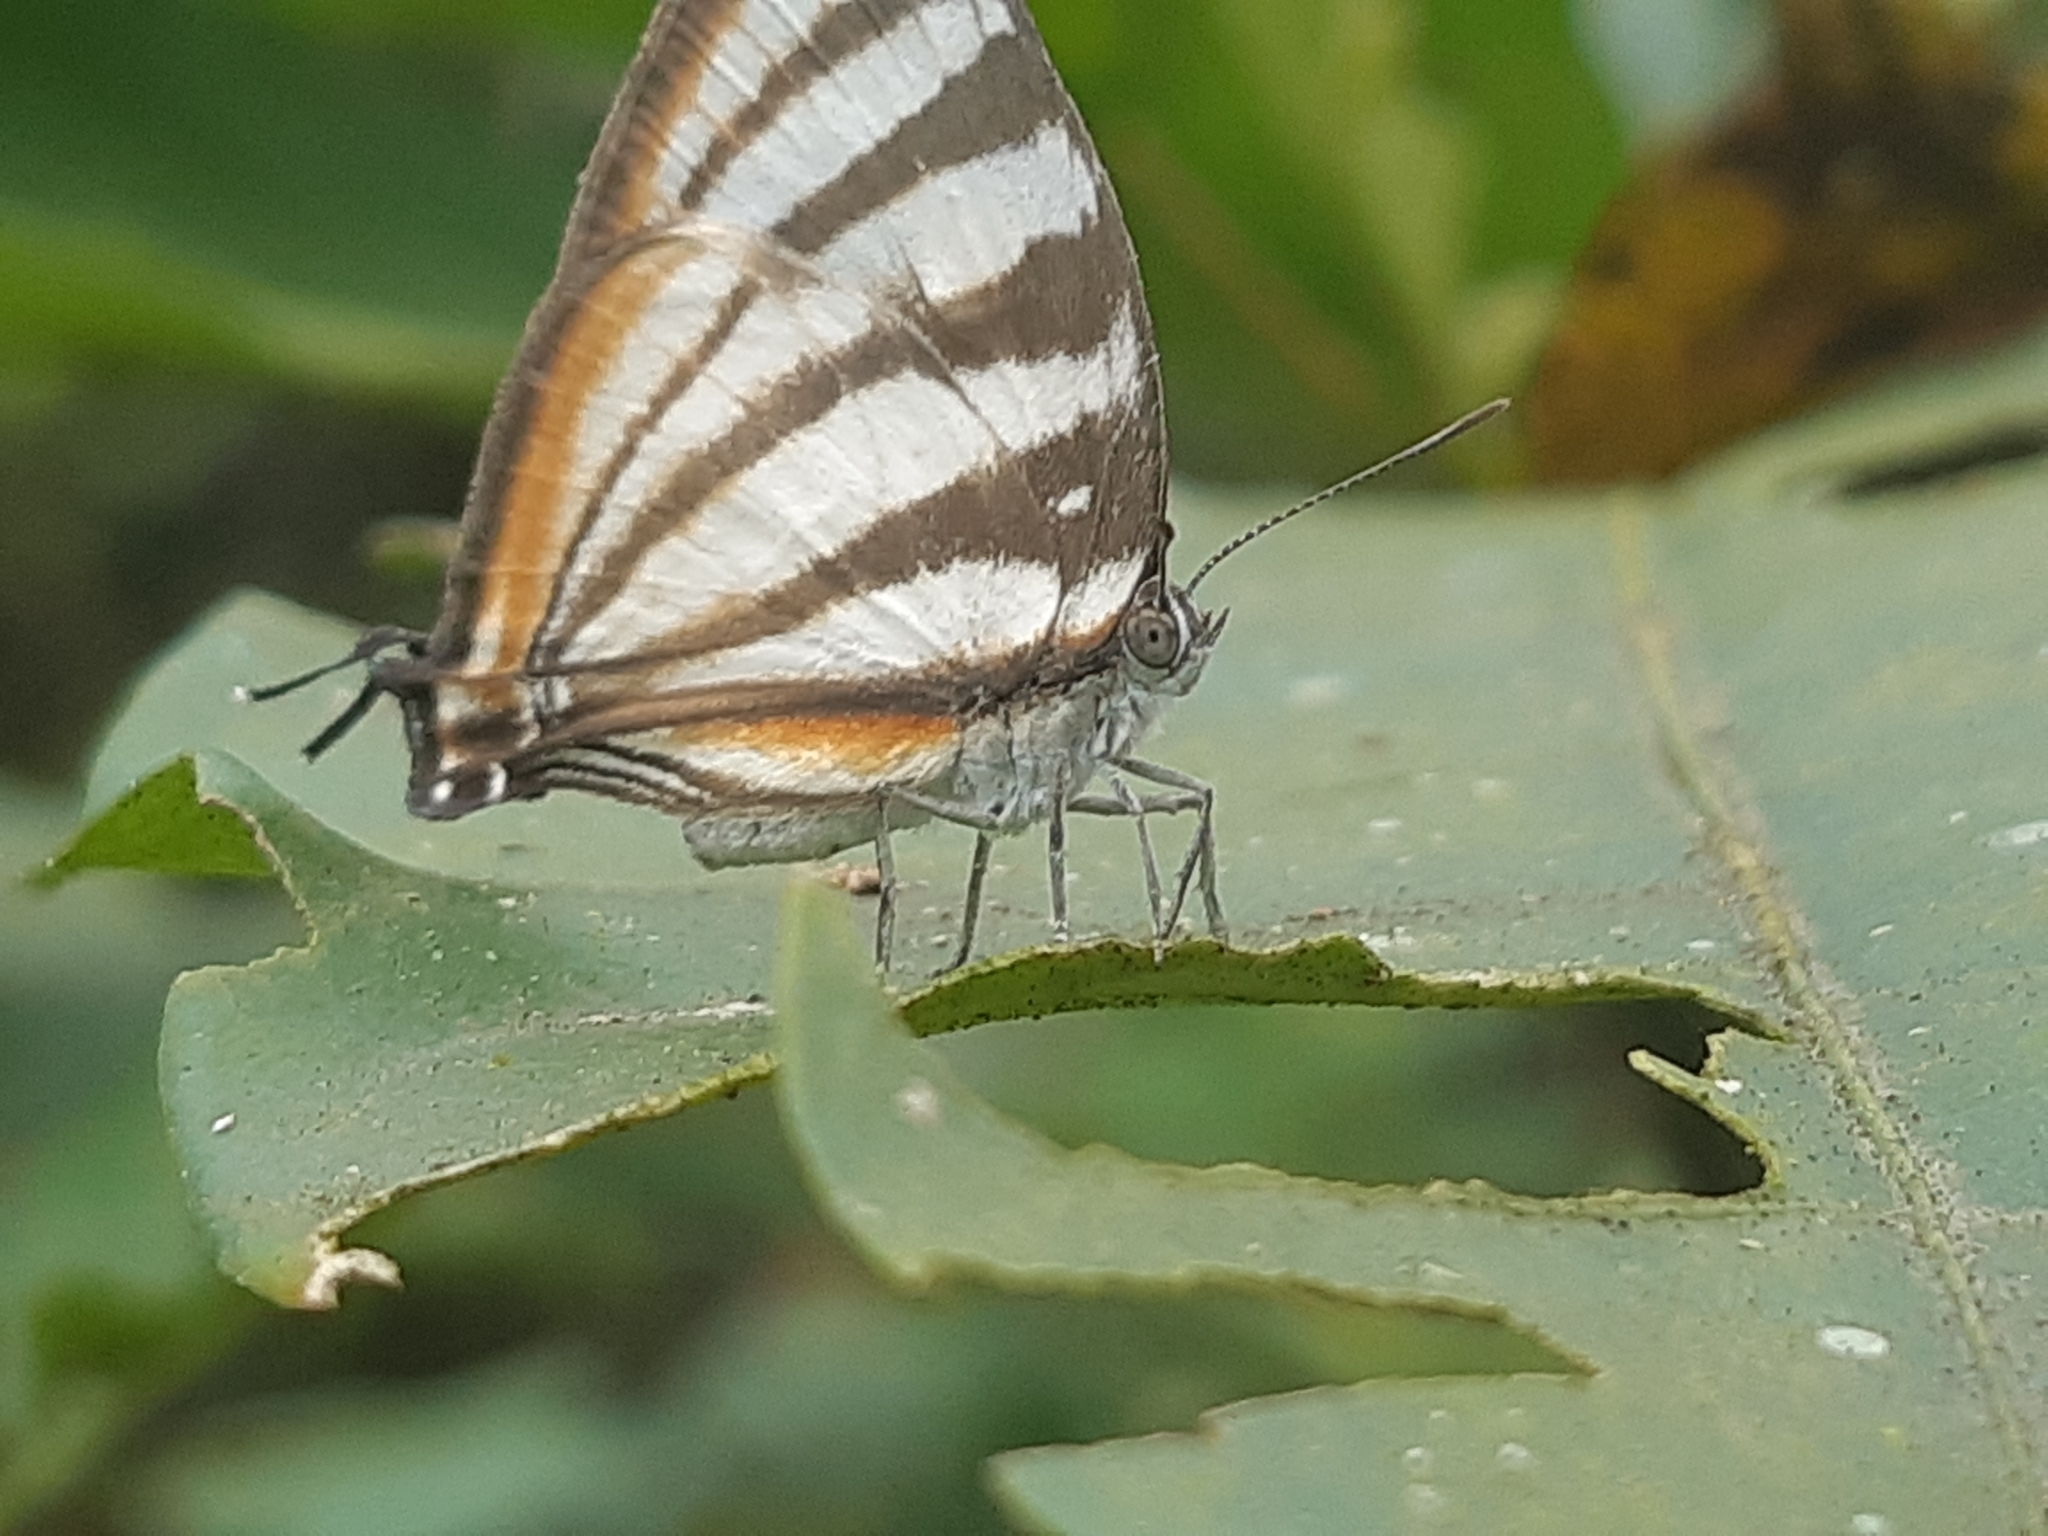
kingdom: Animalia
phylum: Arthropoda
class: Insecta
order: Lepidoptera
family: Lycaenidae
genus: Arawacus
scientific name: Arawacus lincoides
